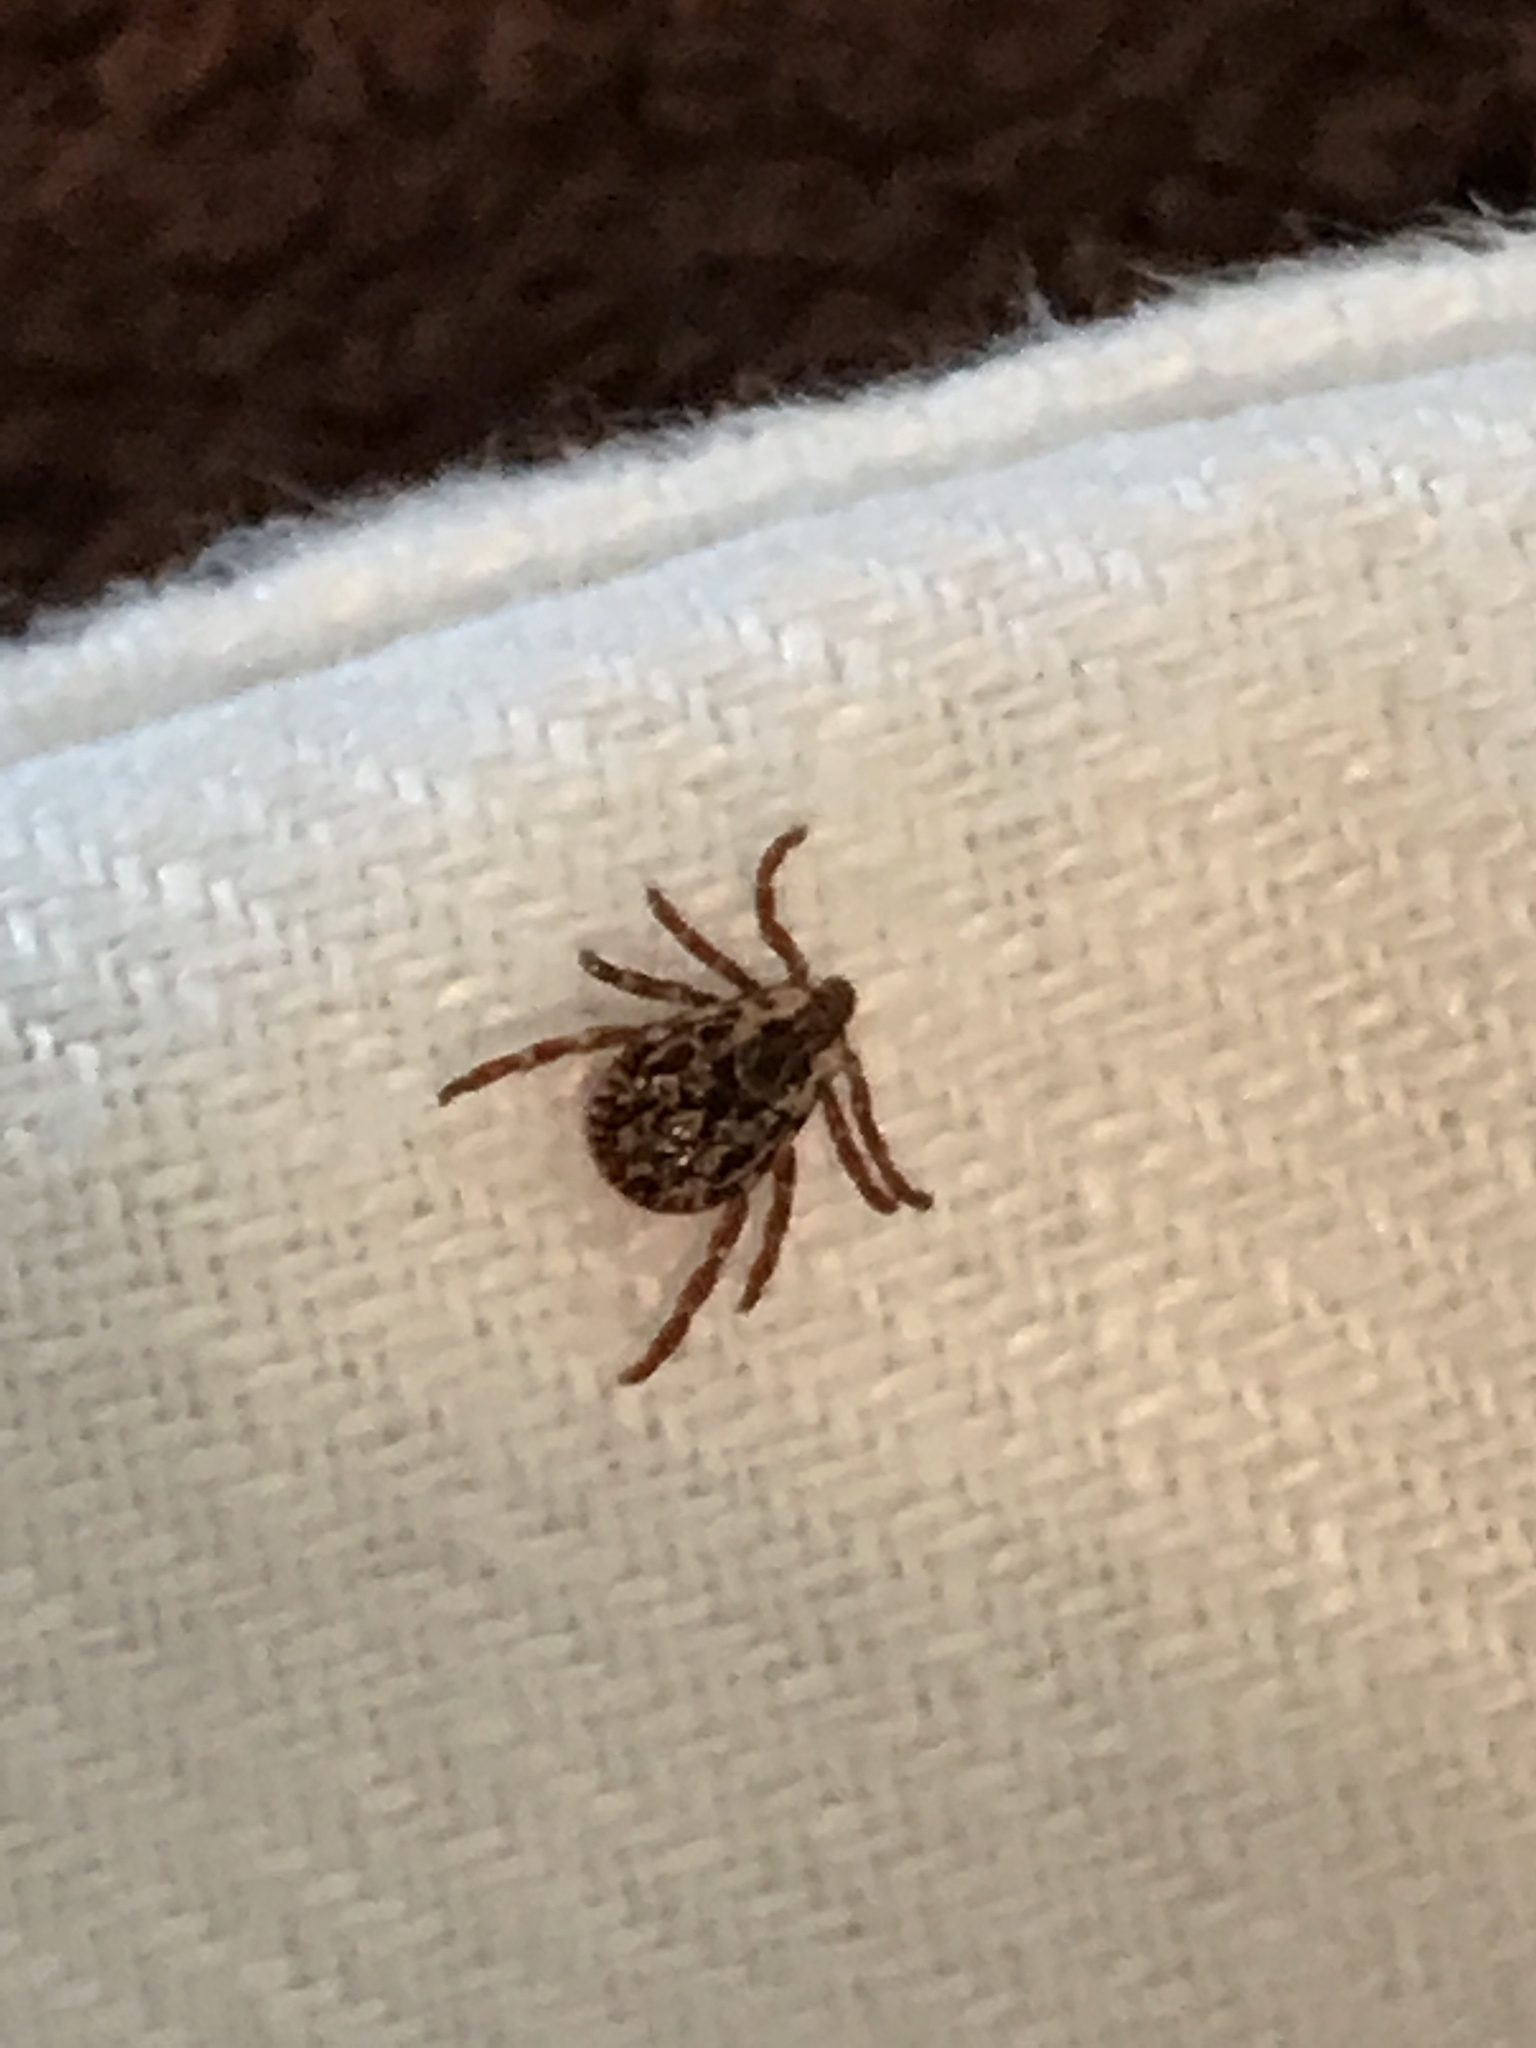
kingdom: Animalia
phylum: Arthropoda
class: Arachnida
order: Ixodida
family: Ixodidae
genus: Dermacentor
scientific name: Dermacentor variabilis
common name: American dog tick
